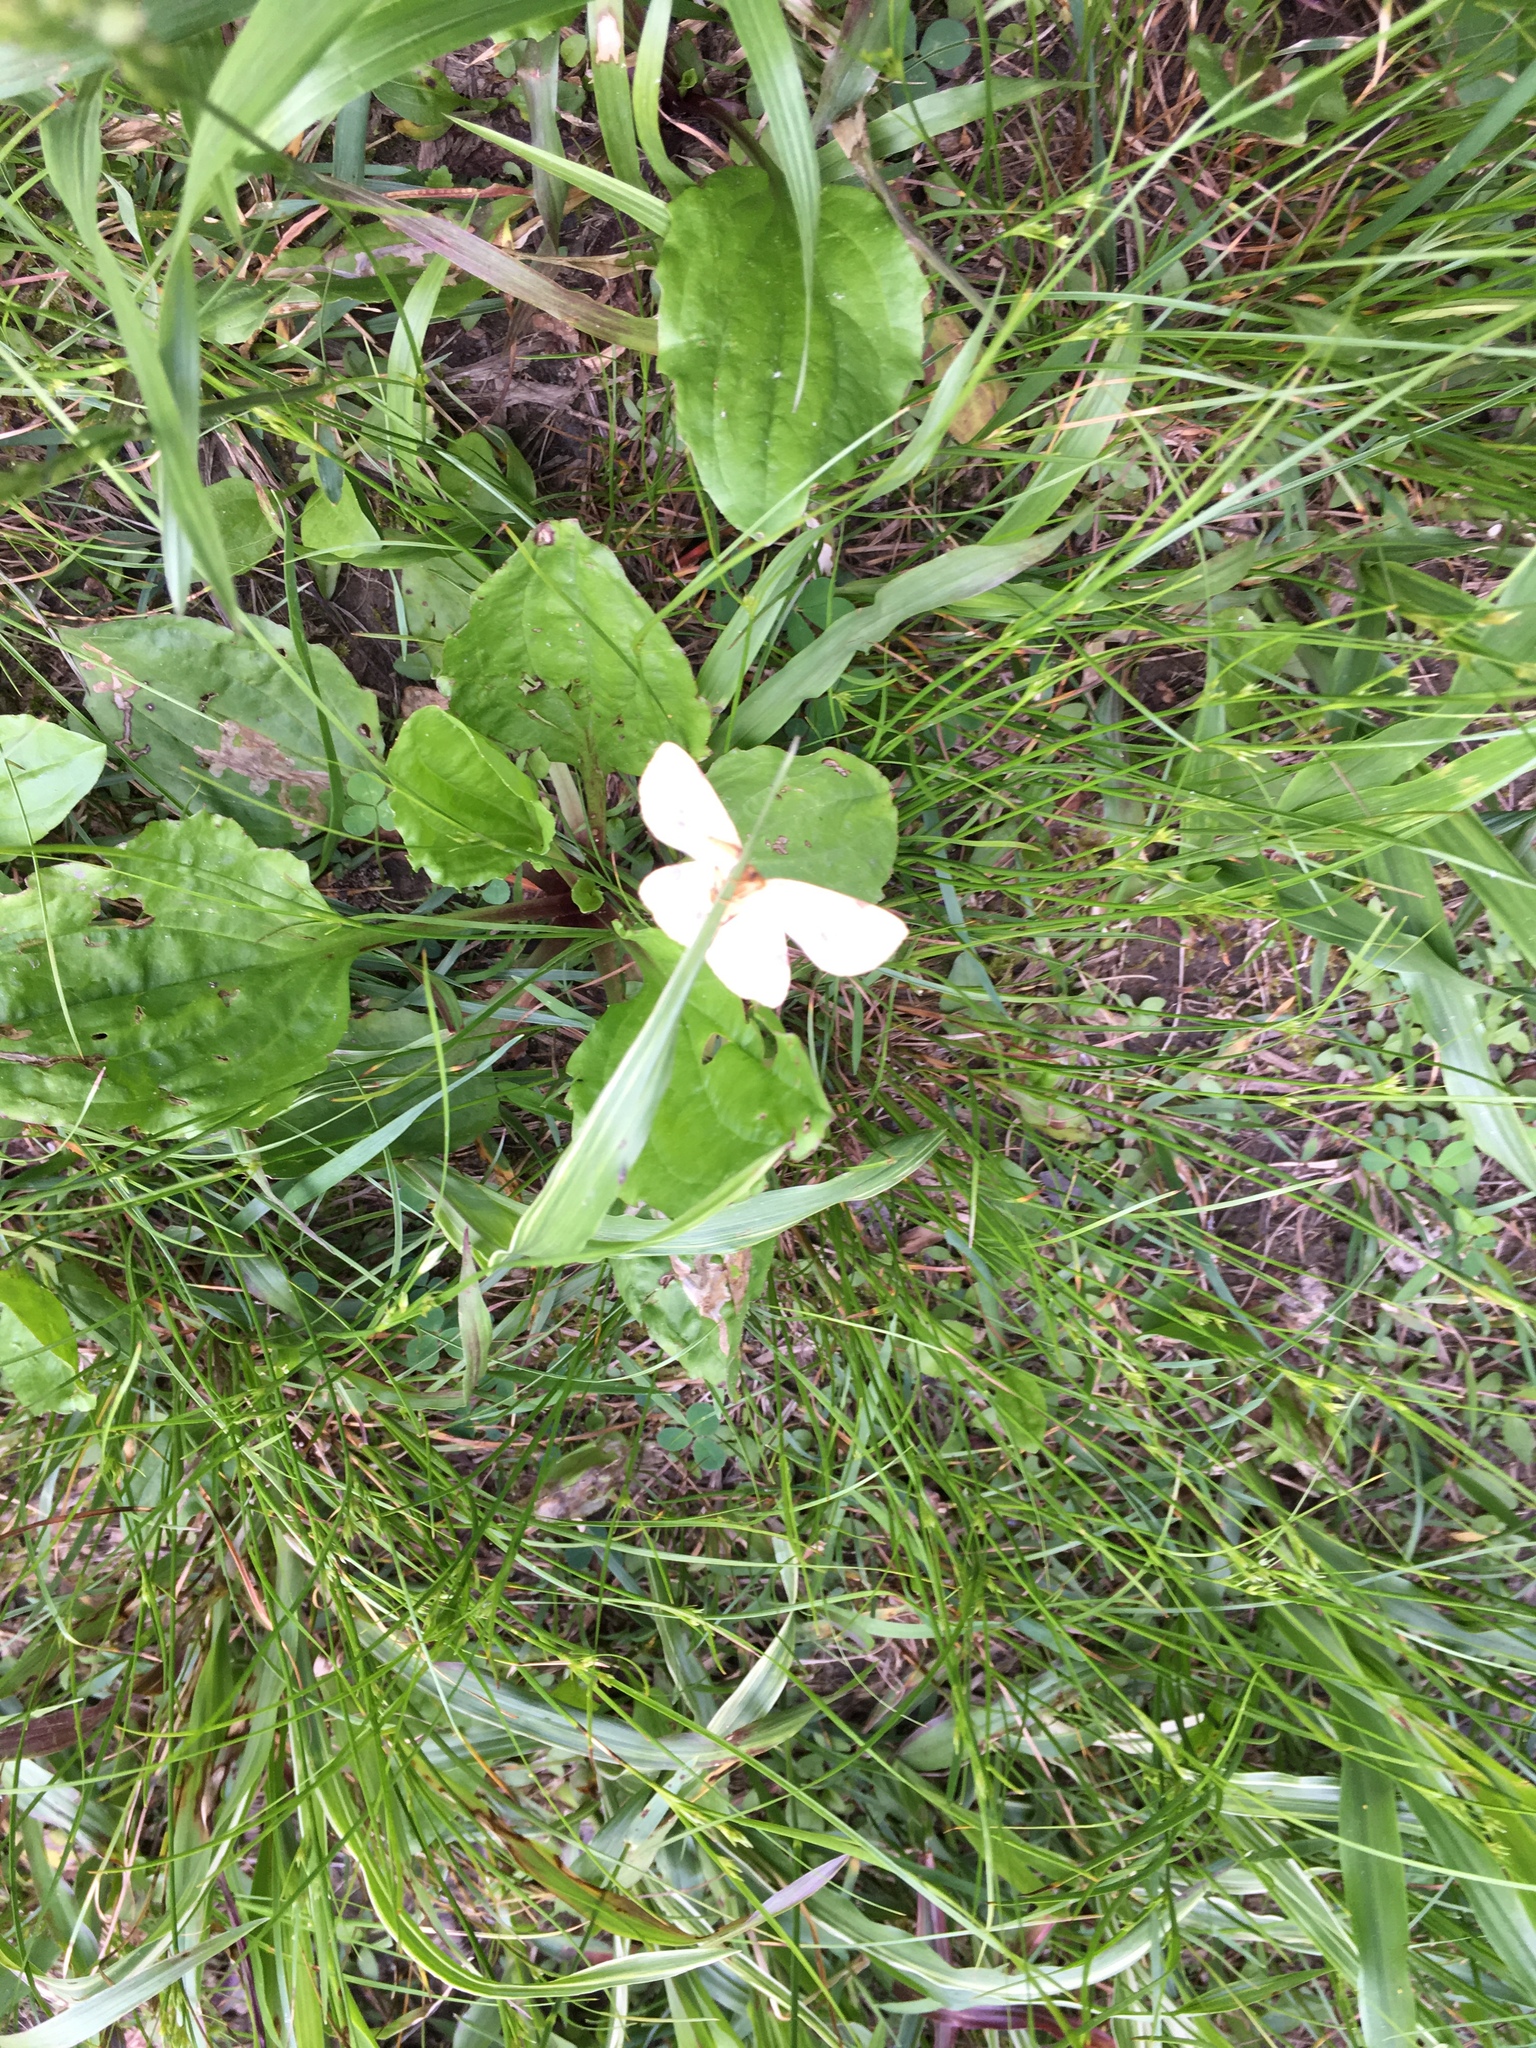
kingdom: Animalia
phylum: Arthropoda
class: Insecta
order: Lepidoptera
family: Geometridae
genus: Xanthotype
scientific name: Xanthotype
